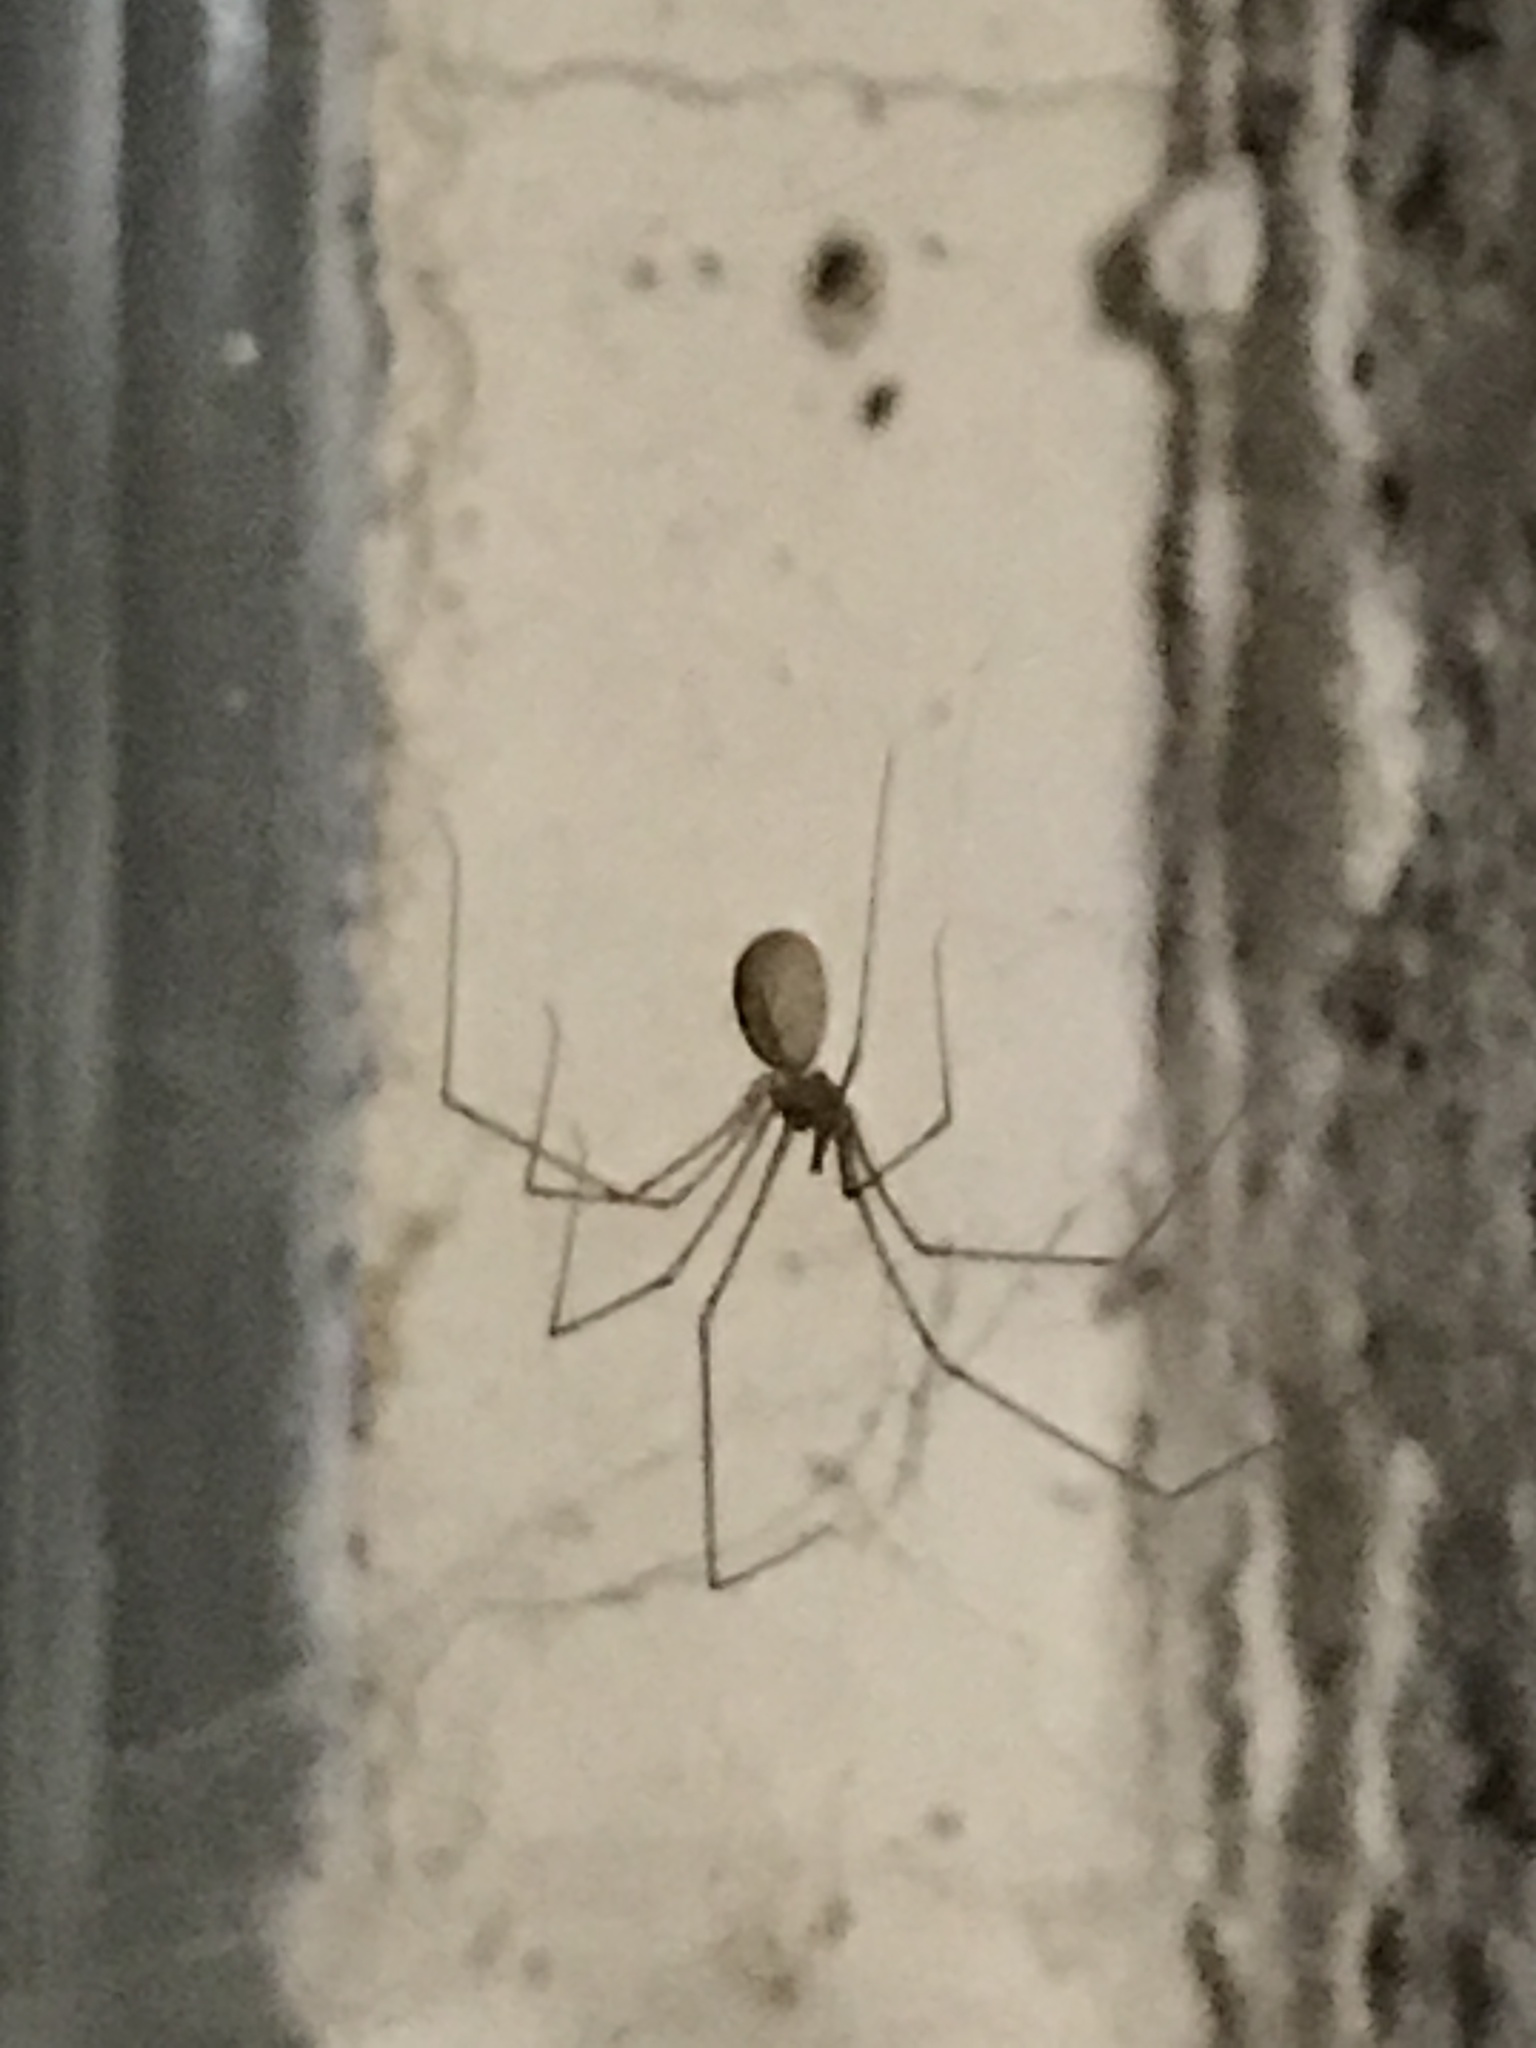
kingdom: Animalia
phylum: Arthropoda
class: Arachnida
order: Araneae
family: Pholcidae
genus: Pholcus
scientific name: Pholcus phalangioides
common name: Longbodied cellar spider
